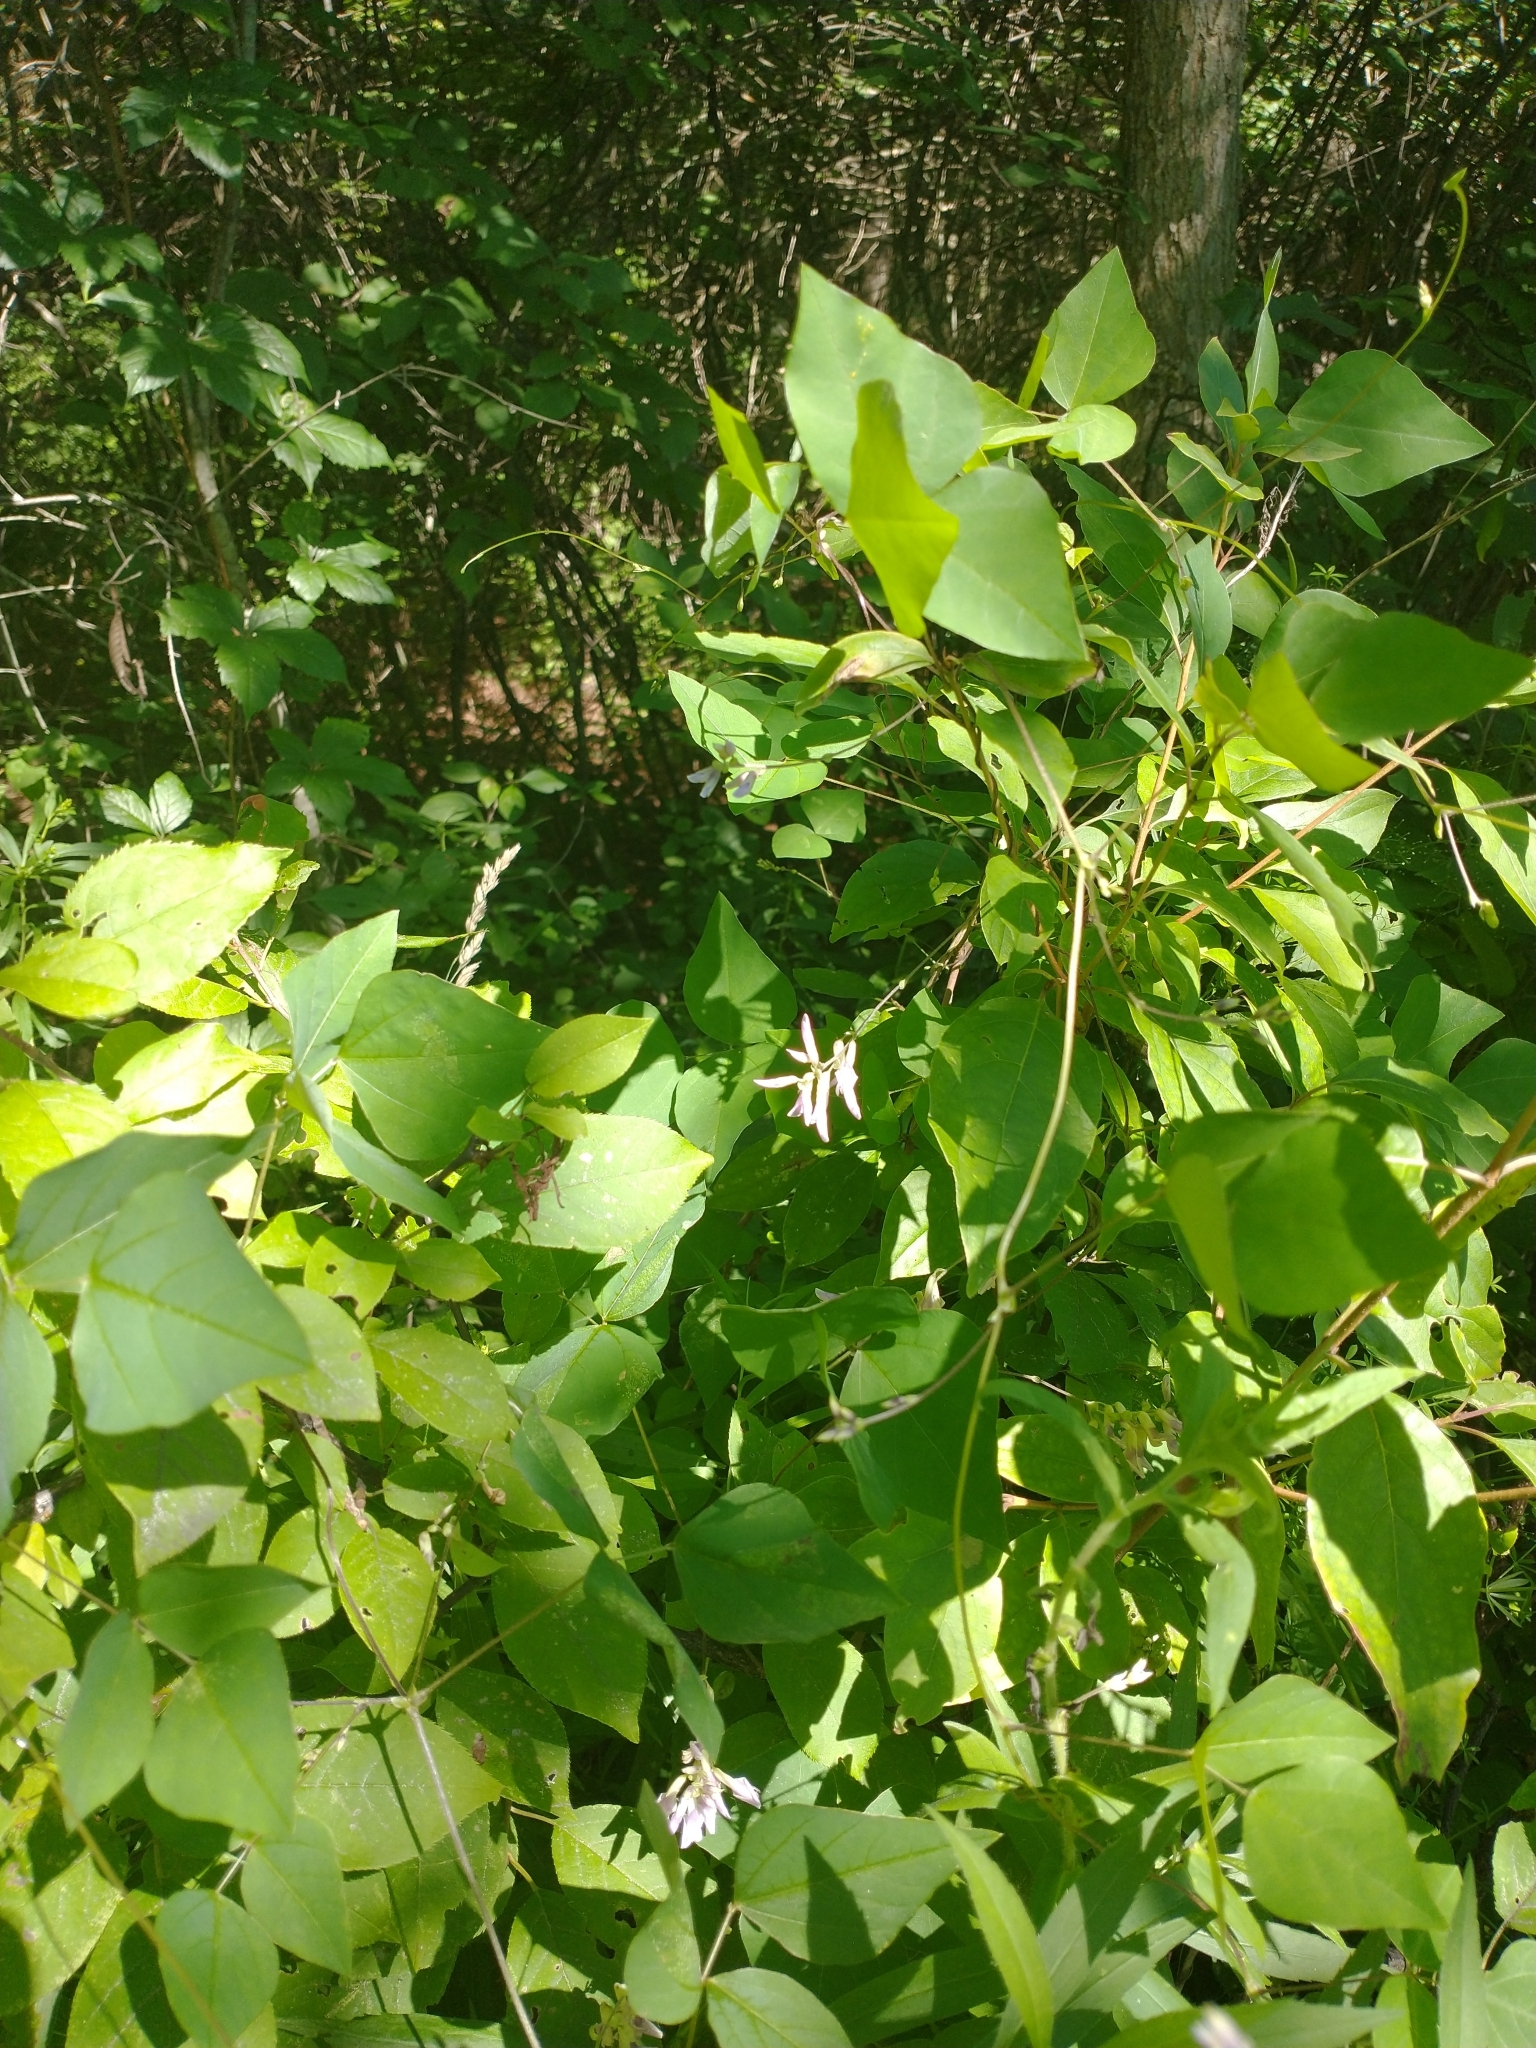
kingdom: Plantae
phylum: Tracheophyta
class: Magnoliopsida
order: Fabales
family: Fabaceae
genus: Amphicarpaea
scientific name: Amphicarpaea bracteata
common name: American hog peanut
